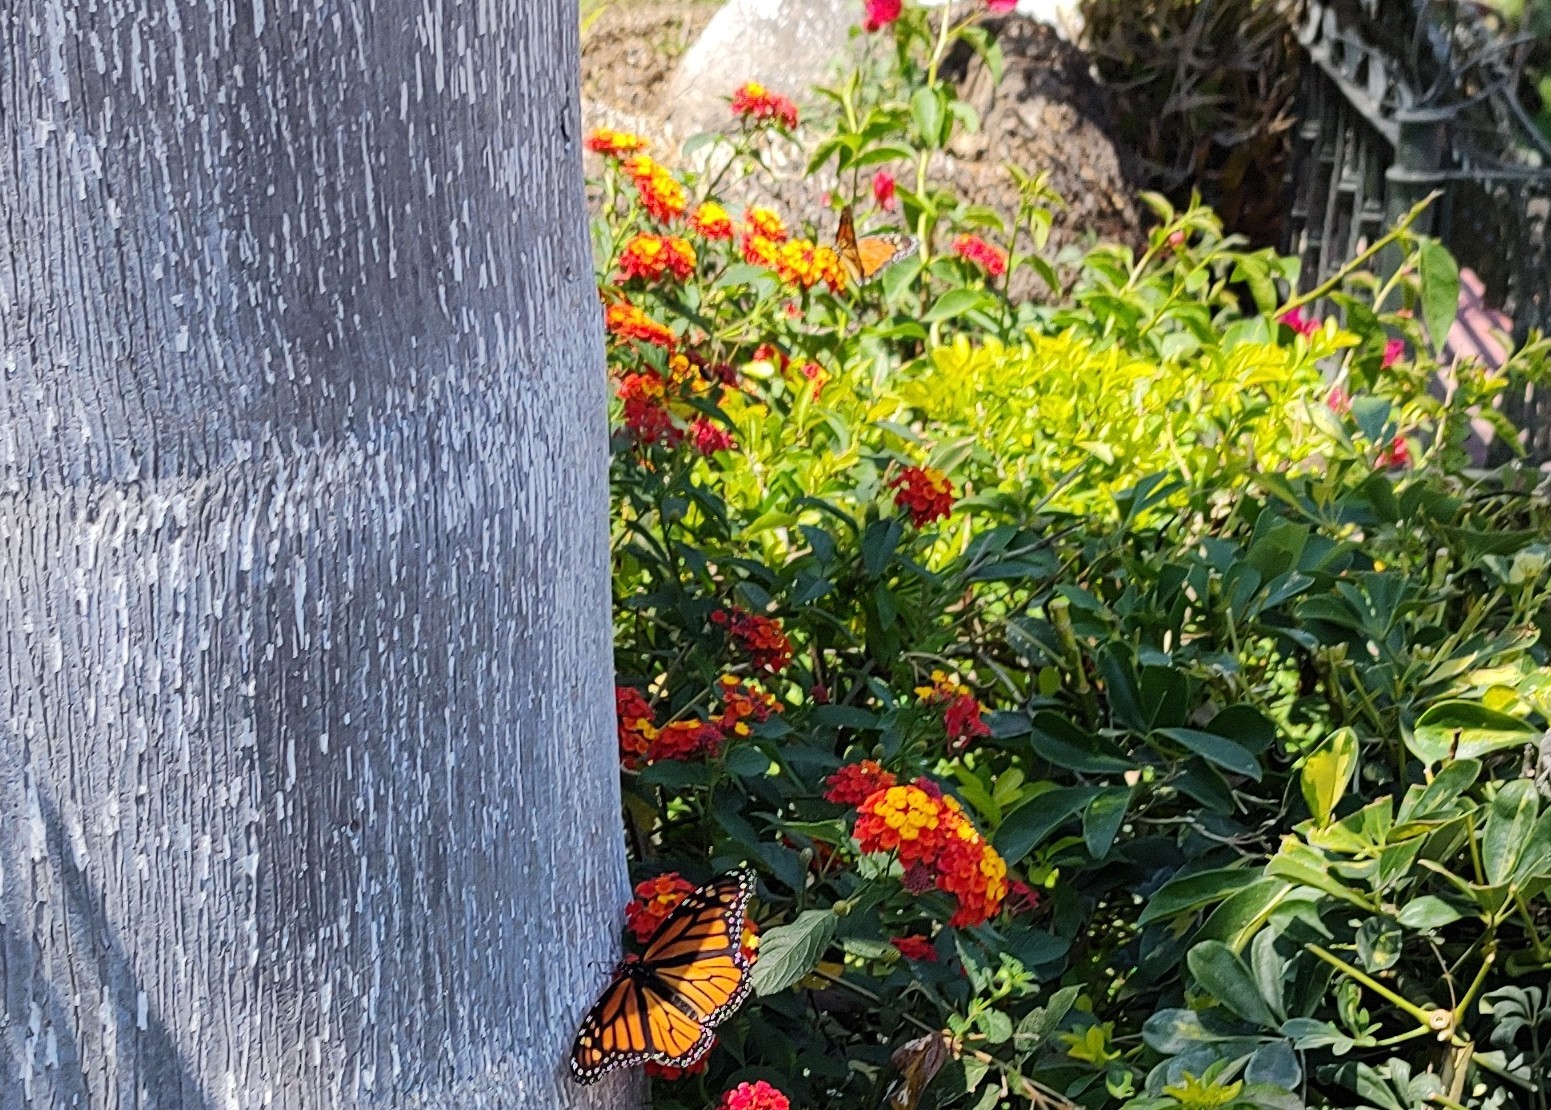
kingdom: Animalia
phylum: Arthropoda
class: Insecta
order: Lepidoptera
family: Nymphalidae
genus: Danaus
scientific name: Danaus plexippus
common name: Monarch
